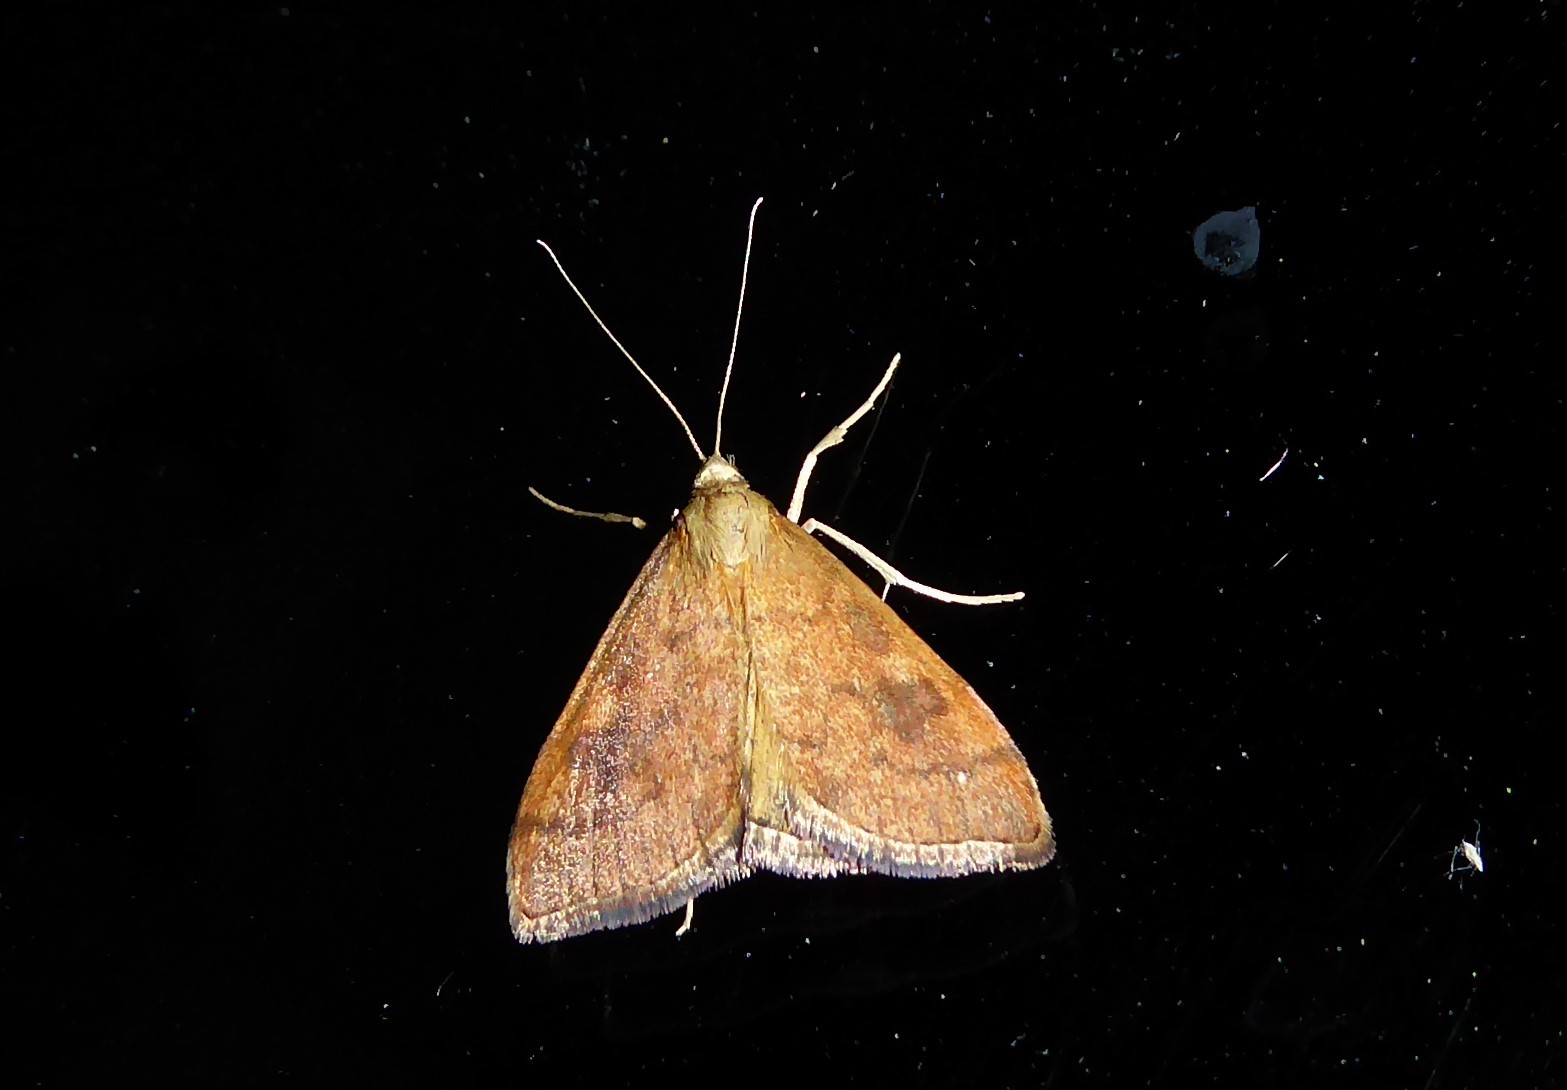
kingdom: Animalia
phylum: Arthropoda
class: Insecta
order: Lepidoptera
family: Crambidae
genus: Udea
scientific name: Udea Mnesictena flavidalis
